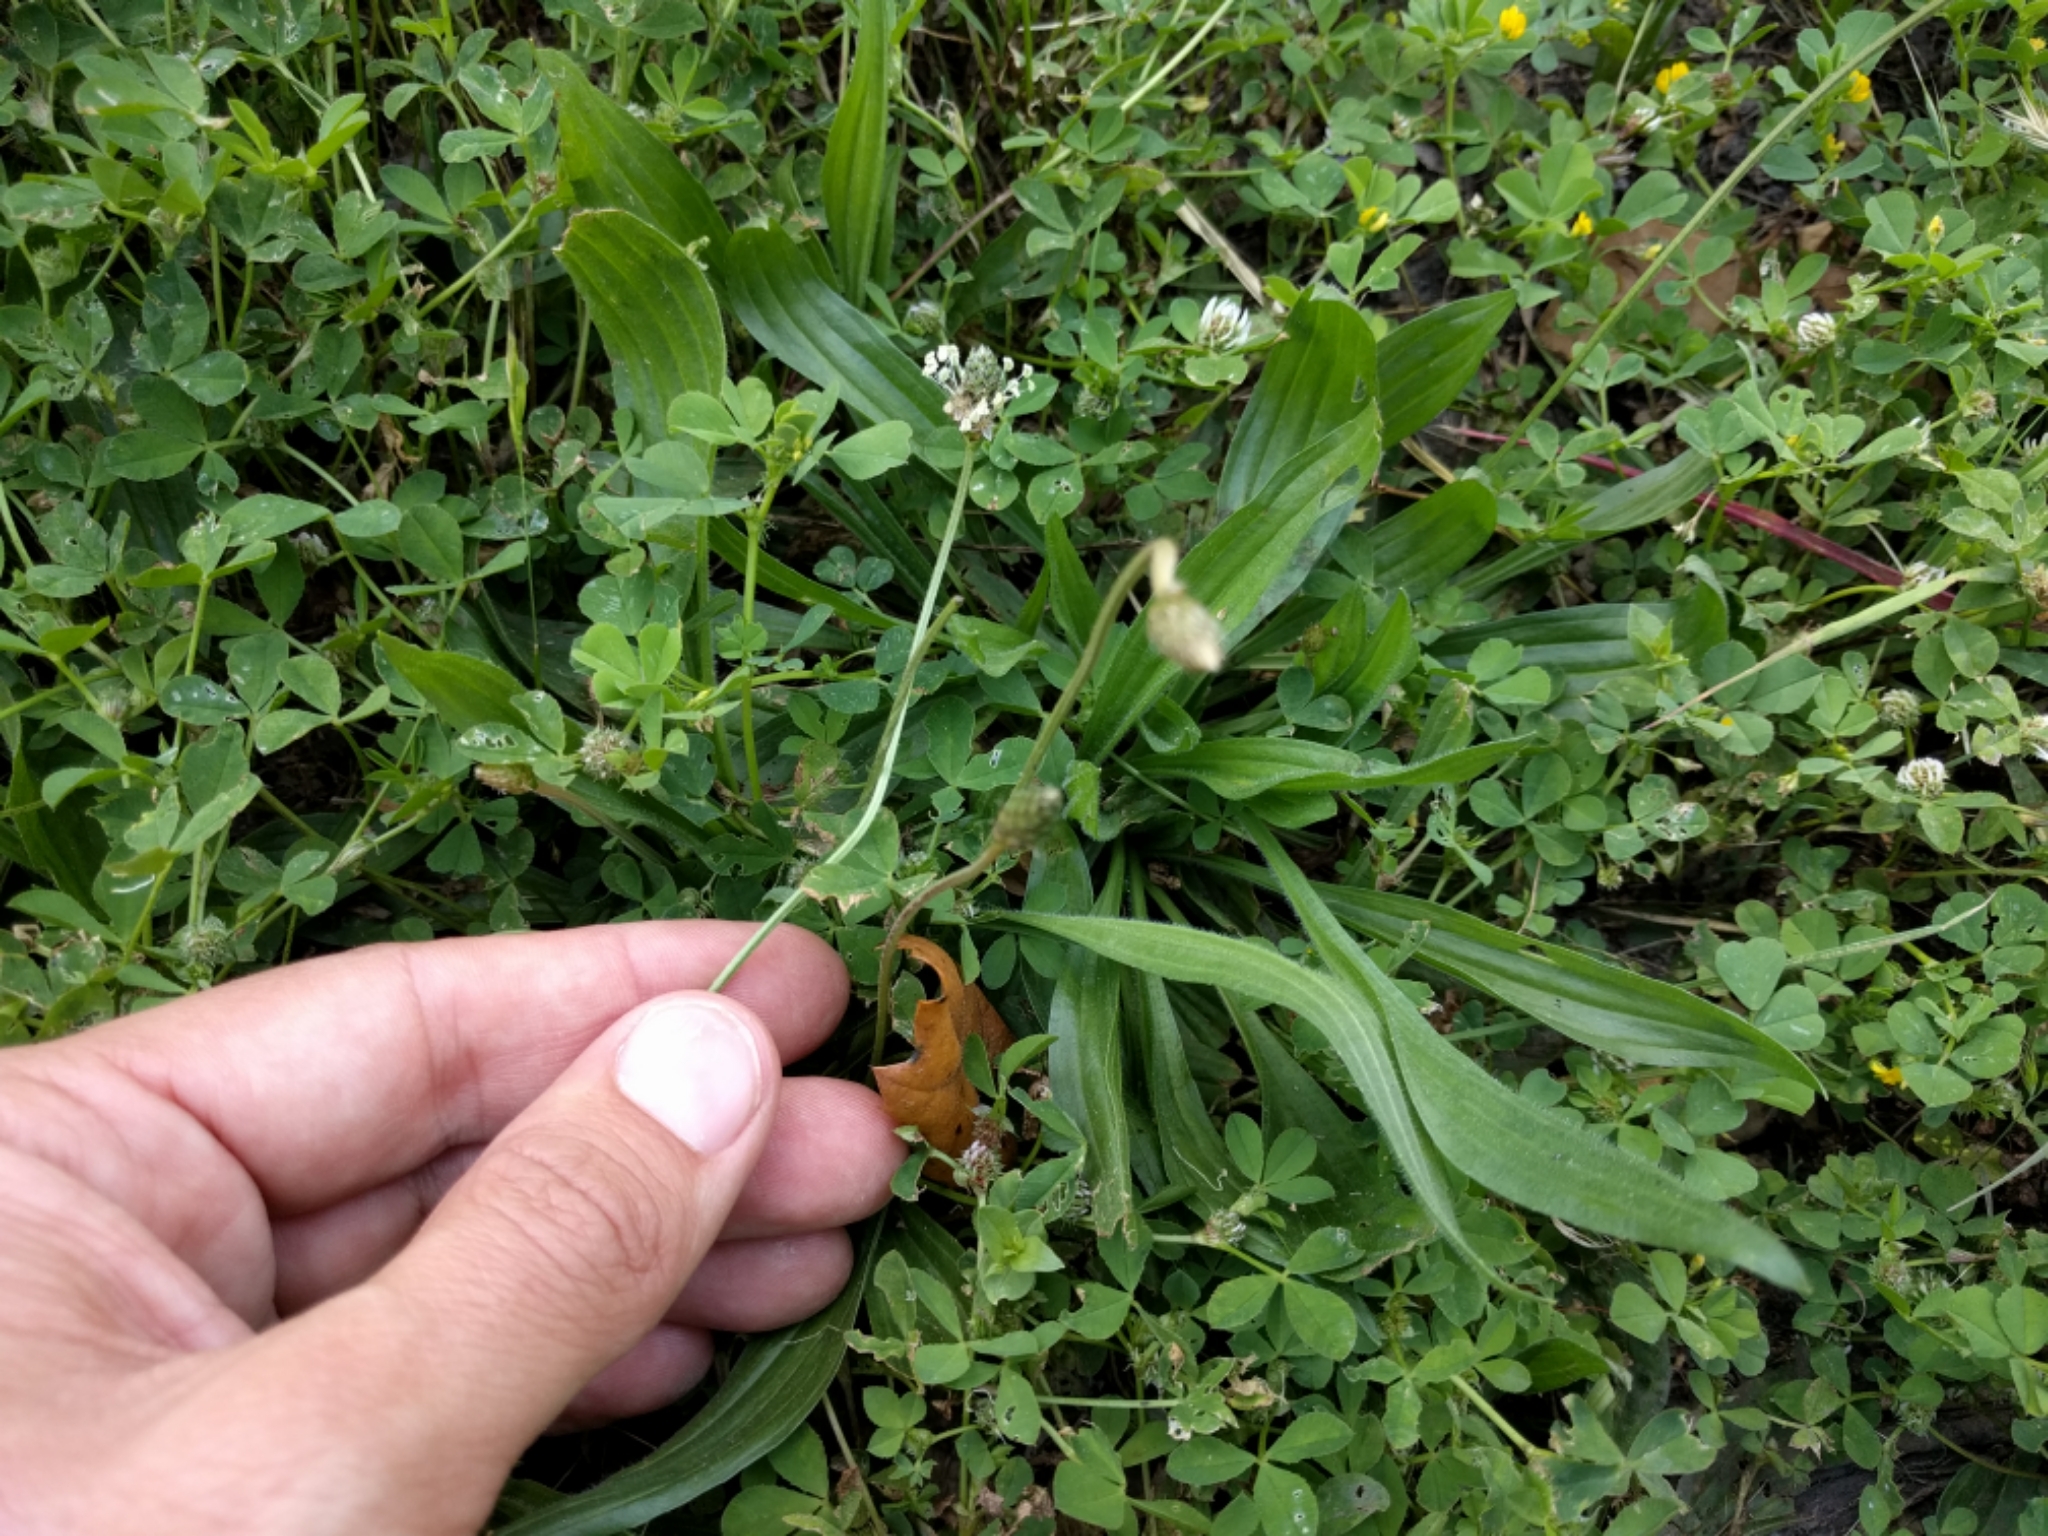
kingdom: Plantae
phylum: Tracheophyta
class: Magnoliopsida
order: Lamiales
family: Plantaginaceae
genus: Plantago
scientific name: Plantago lanceolata
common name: Ribwort plantain
